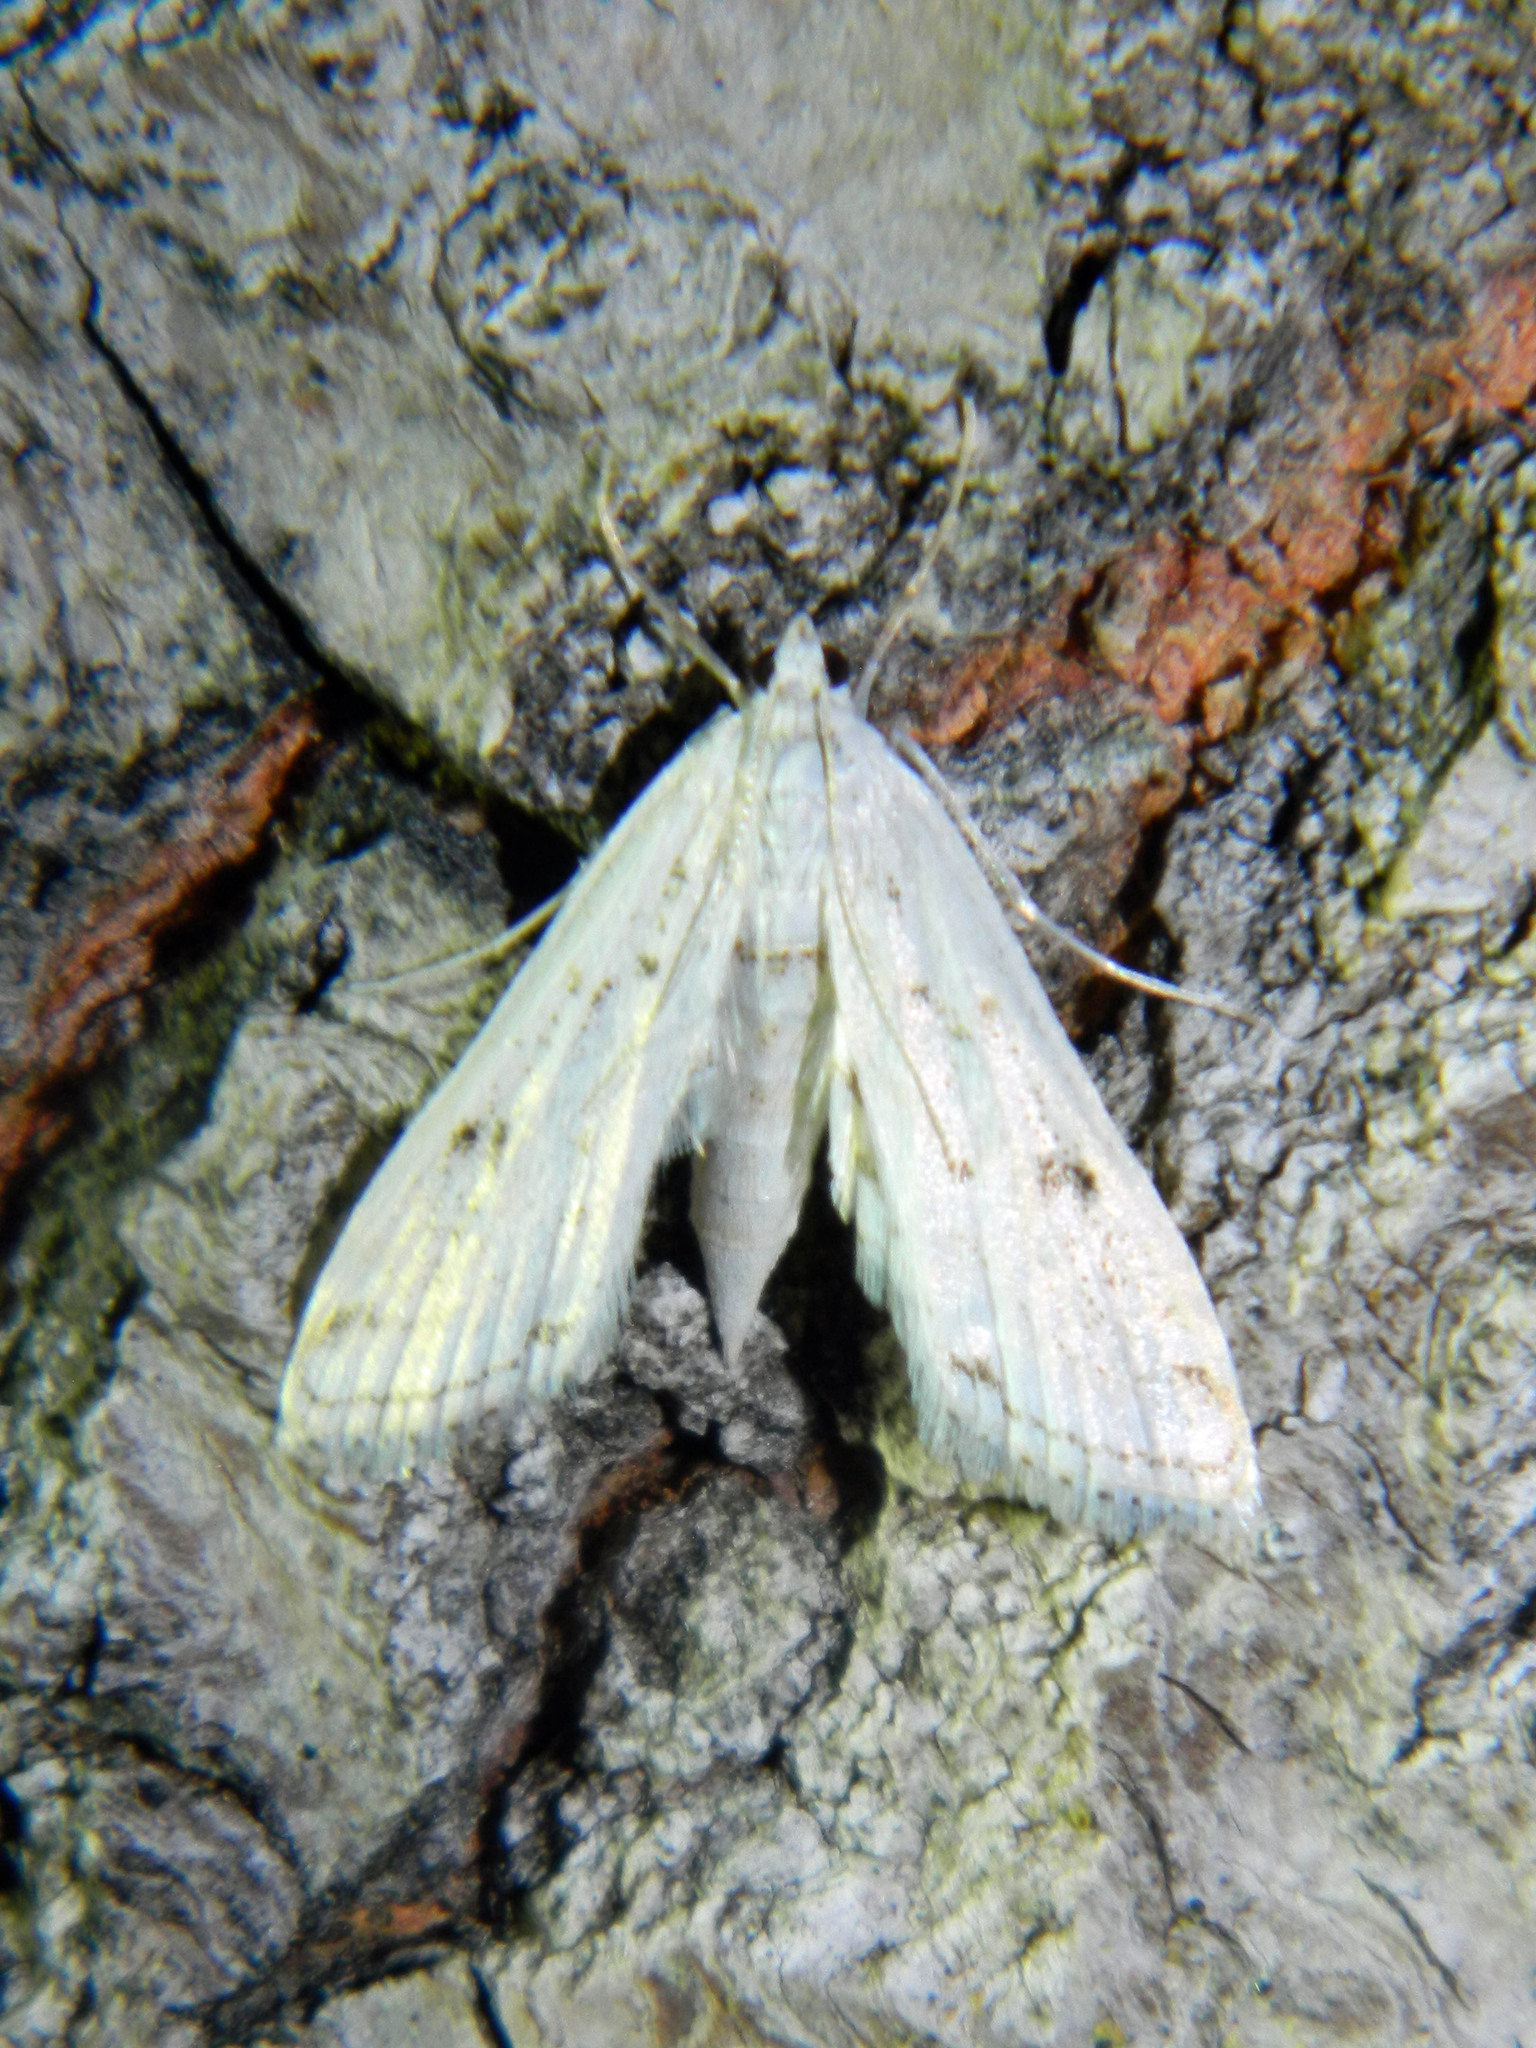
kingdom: Animalia
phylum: Arthropoda
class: Insecta
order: Lepidoptera
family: Crambidae
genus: Parapoynx
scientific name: Parapoynx allionealis
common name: Bladderwort casemaker
